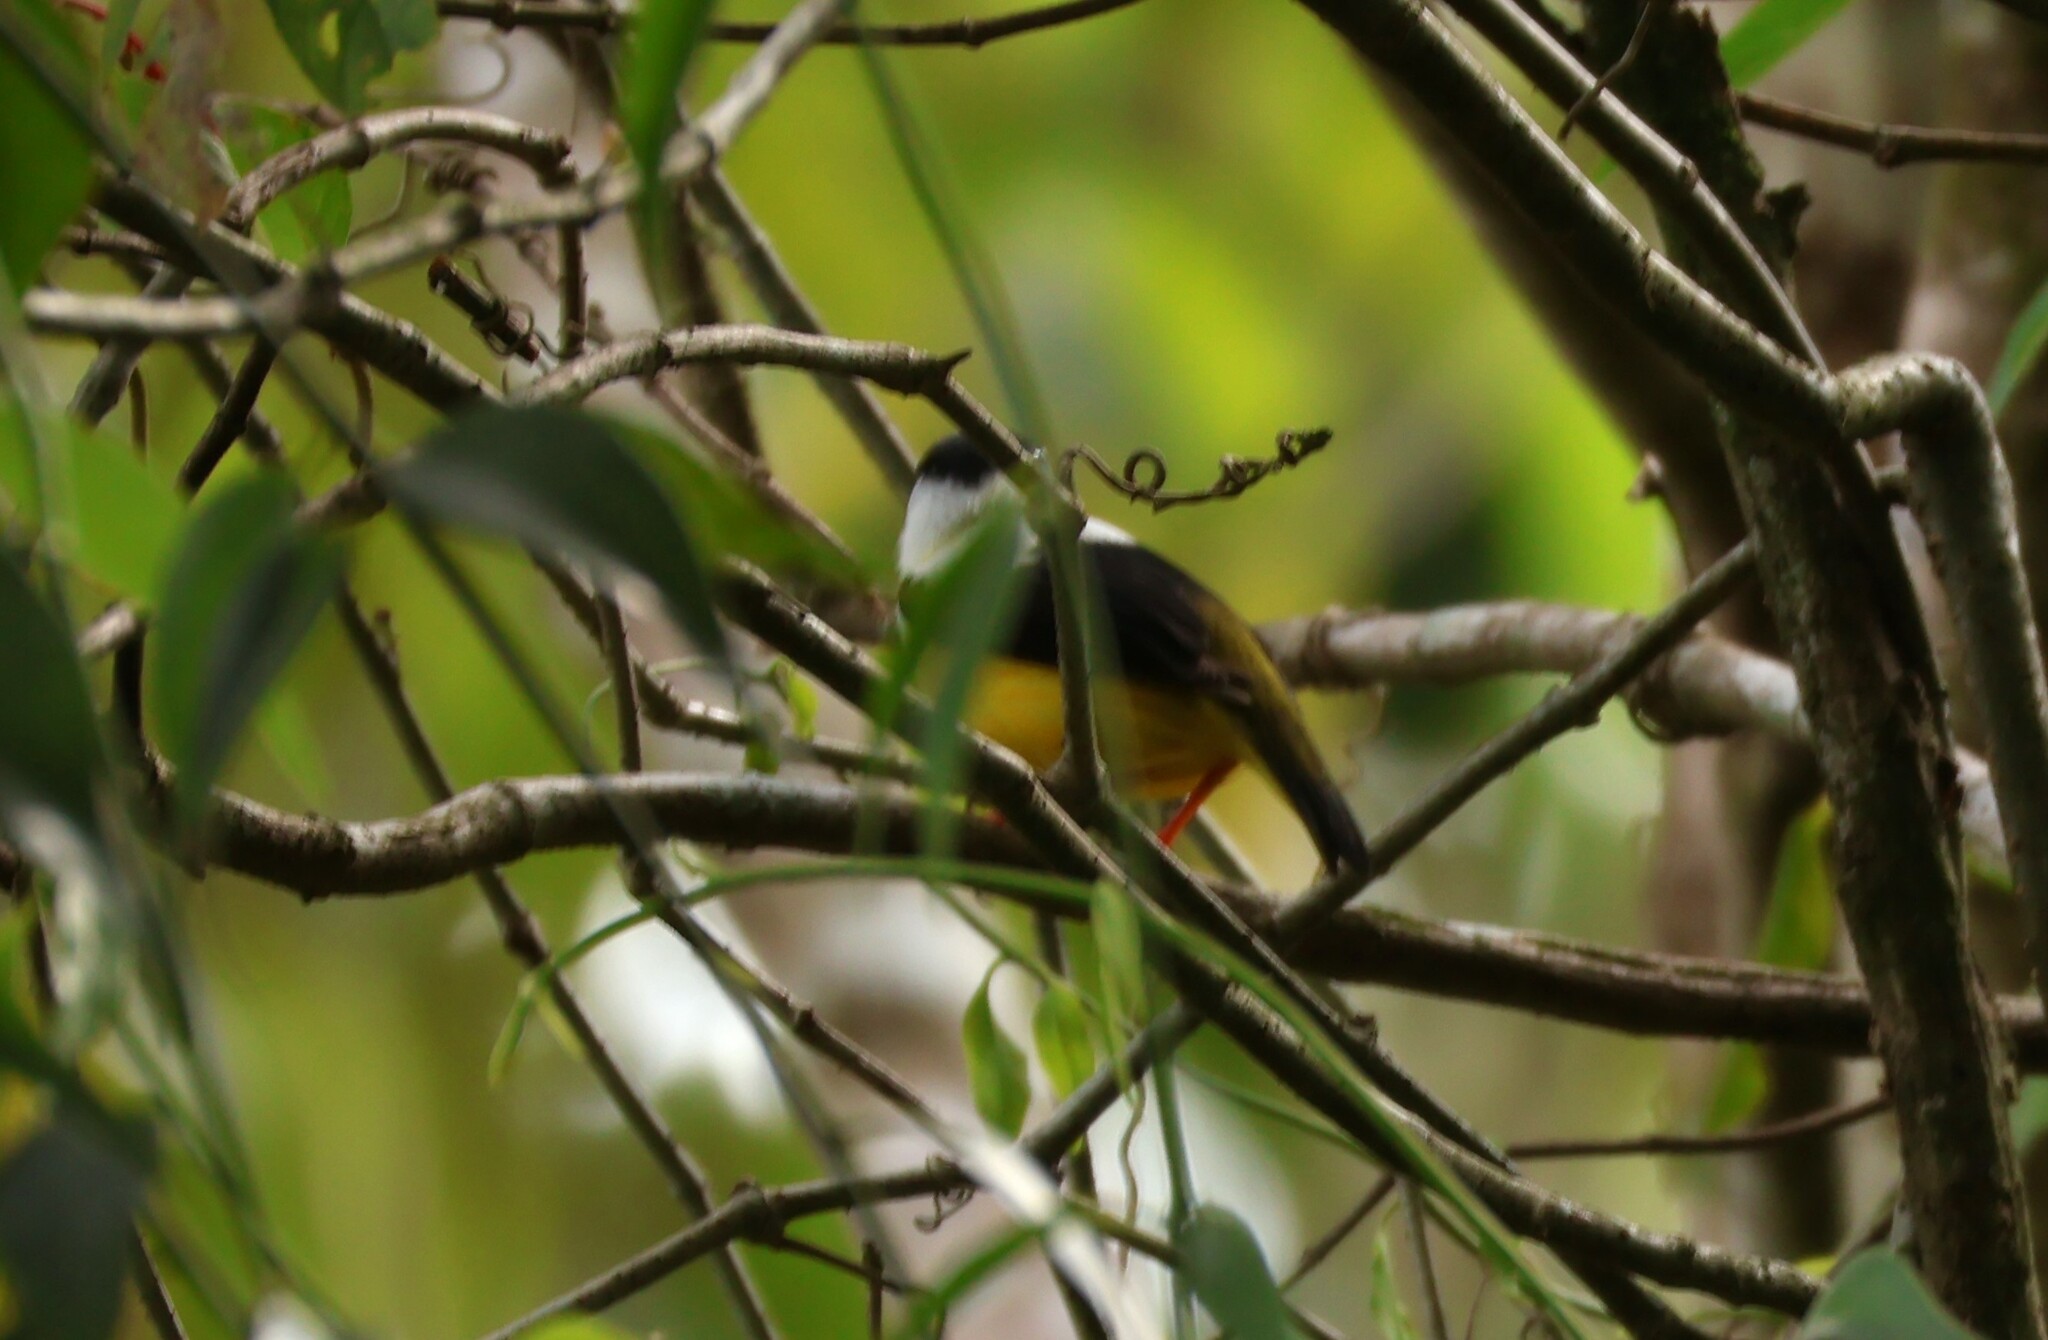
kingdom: Animalia
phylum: Chordata
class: Aves
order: Passeriformes
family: Pipridae
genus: Manacus
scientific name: Manacus candei
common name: White-collared manakin
